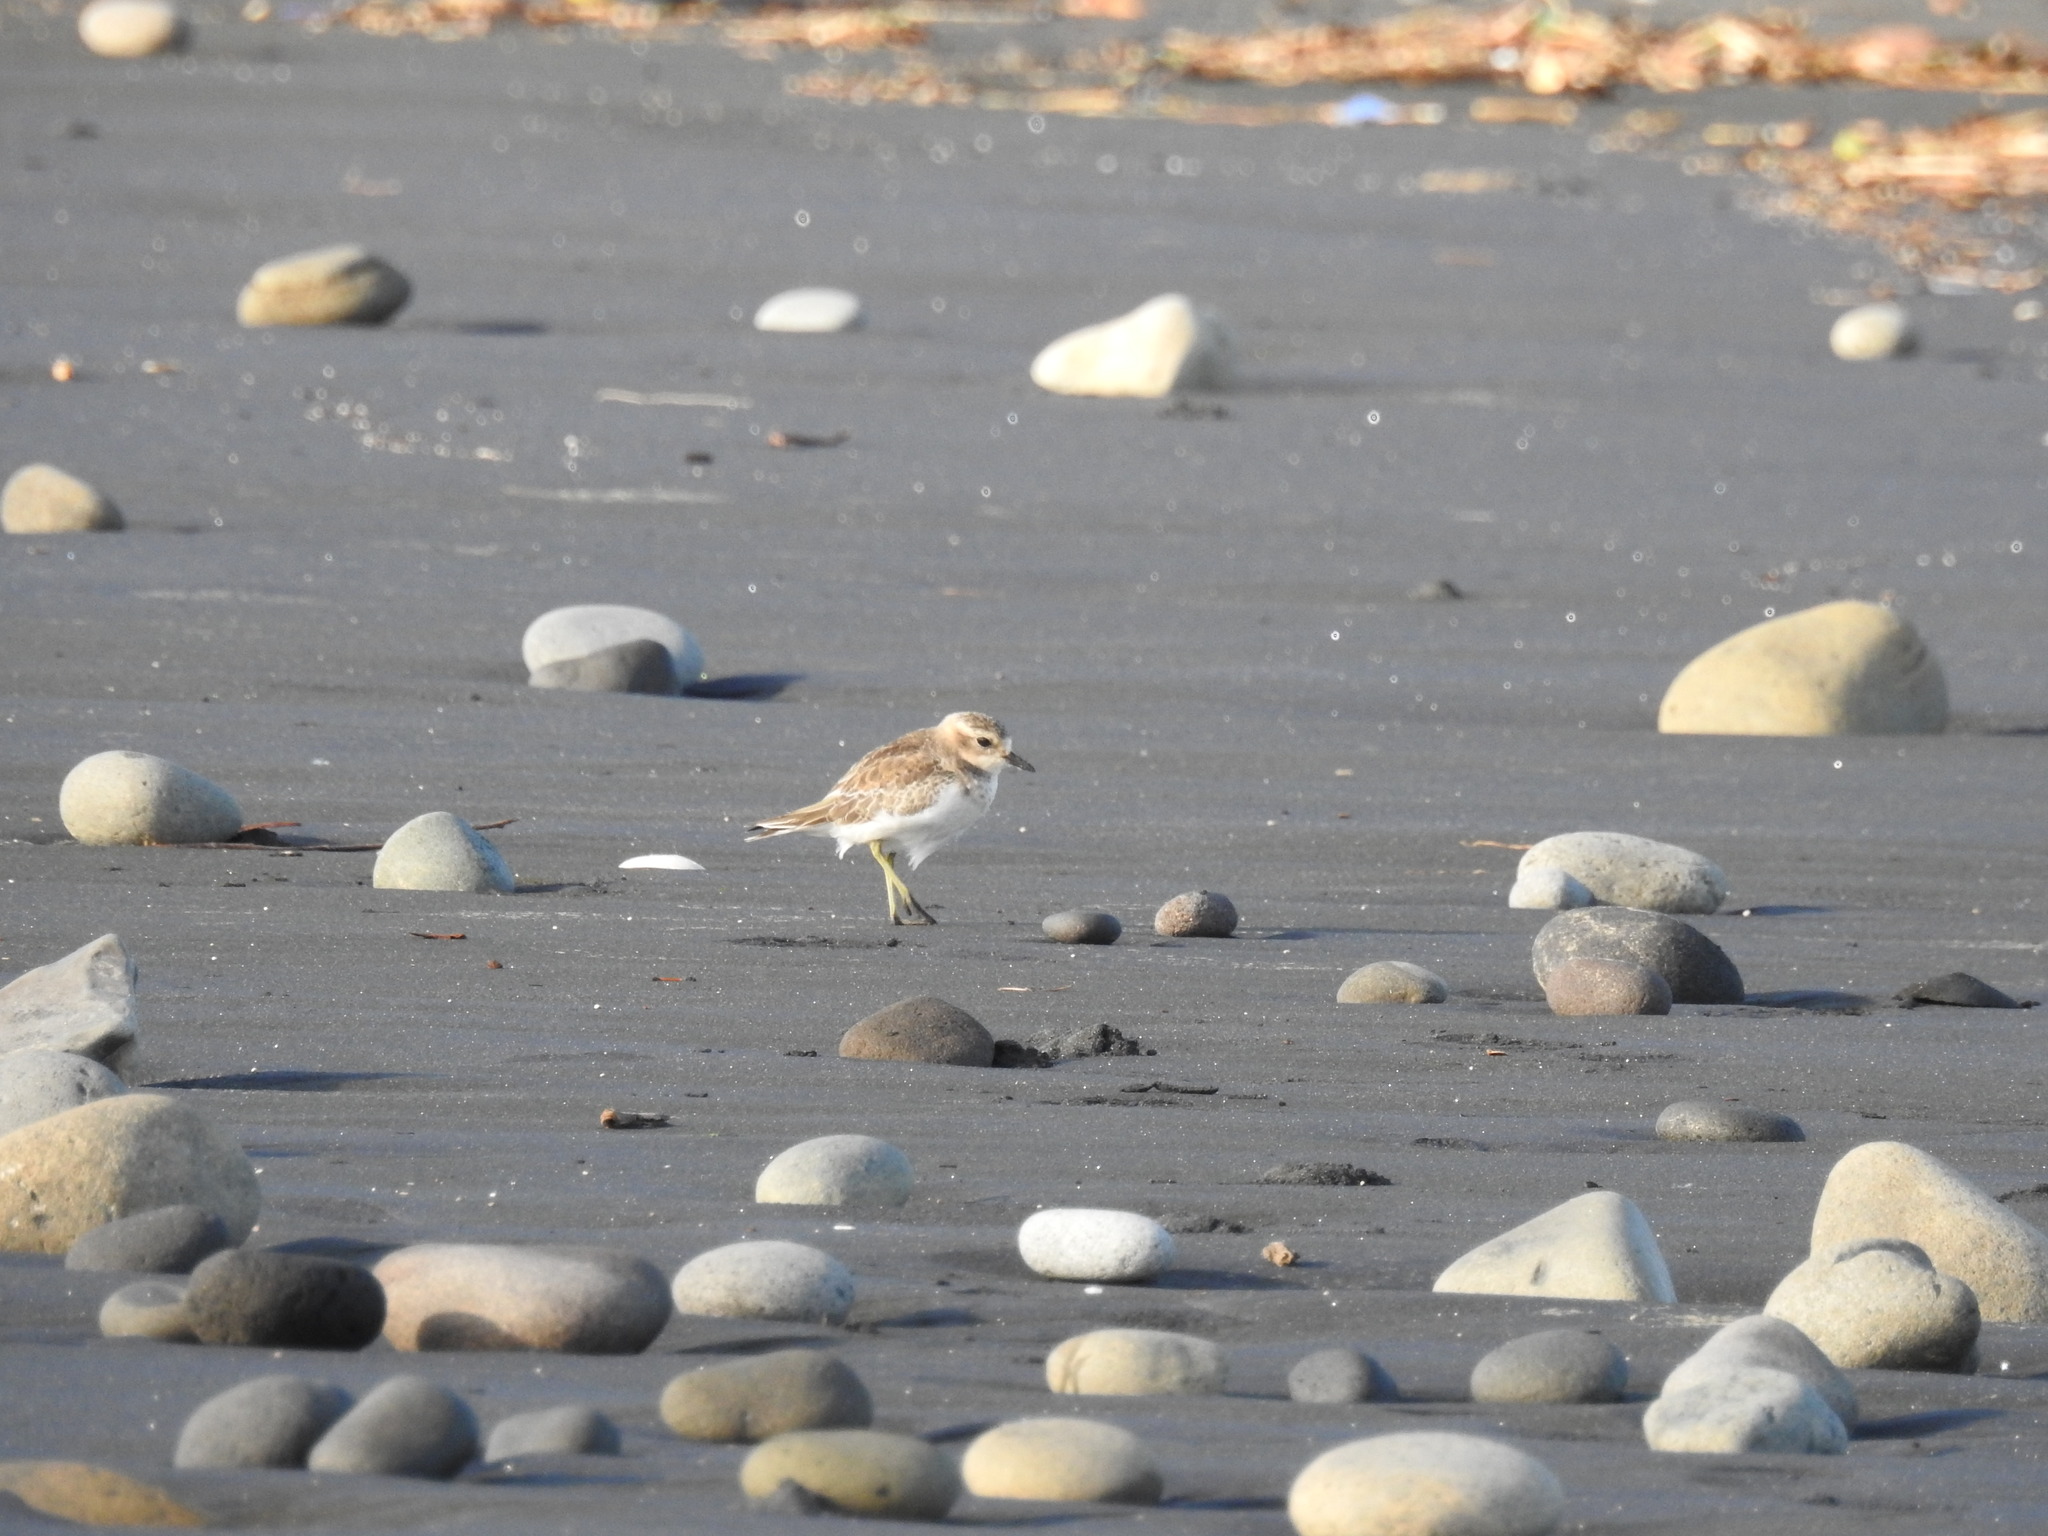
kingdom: Animalia
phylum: Chordata
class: Aves
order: Charadriiformes
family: Charadriidae
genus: Anarhynchus
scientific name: Anarhynchus
